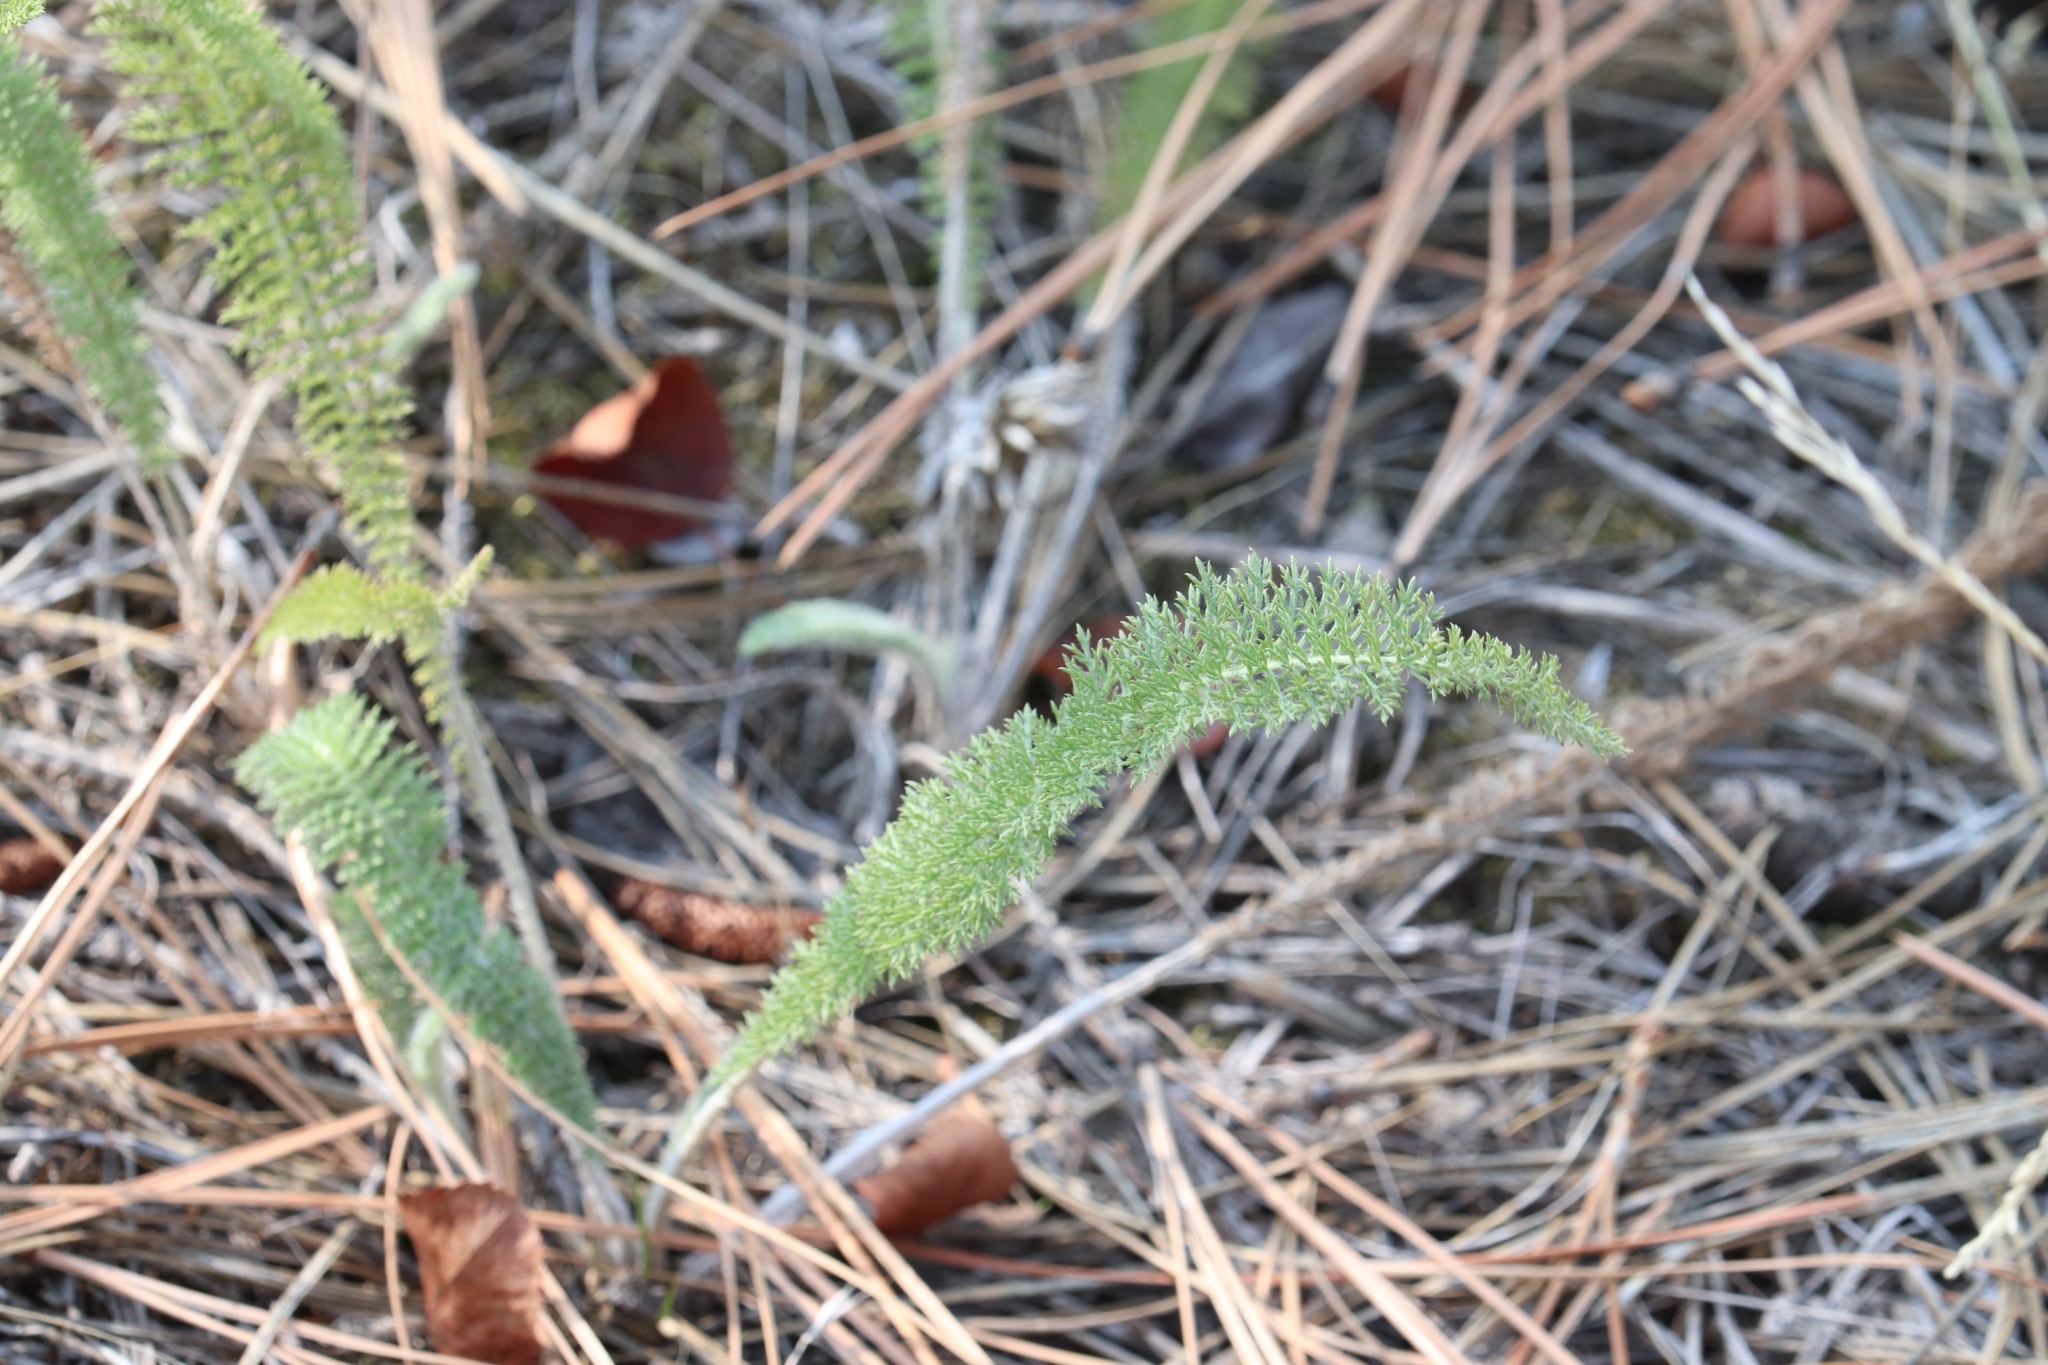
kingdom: Plantae
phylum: Tracheophyta
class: Magnoliopsida
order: Asterales
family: Asteraceae
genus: Achillea
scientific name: Achillea millefolium
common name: Yarrow
